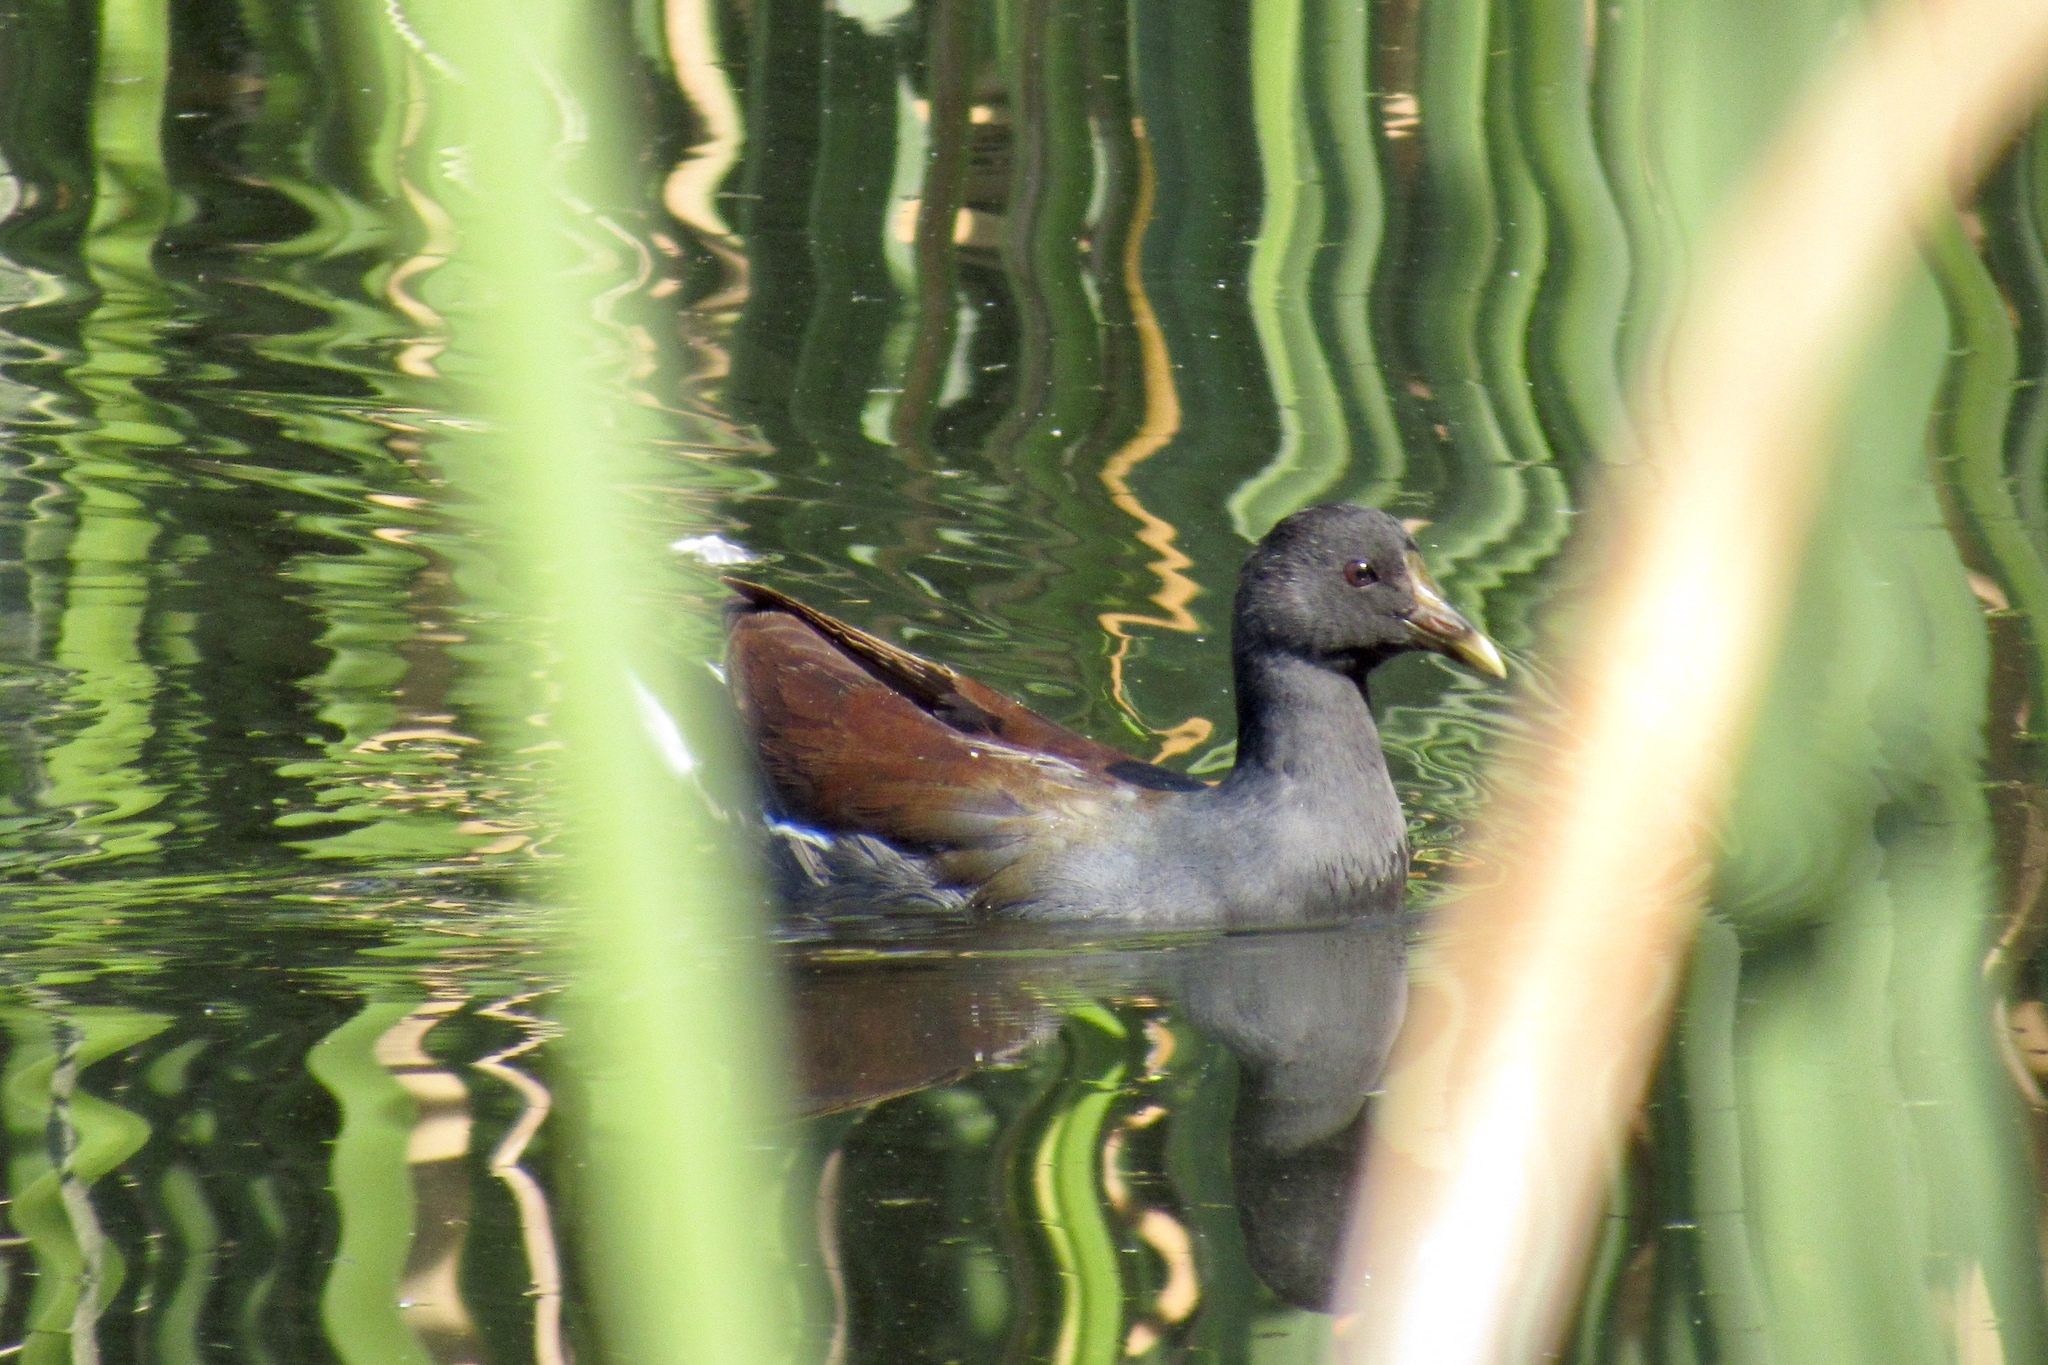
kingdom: Animalia
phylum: Chordata
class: Aves
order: Gruiformes
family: Rallidae
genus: Gallinula
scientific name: Gallinula chloropus
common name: Common moorhen
